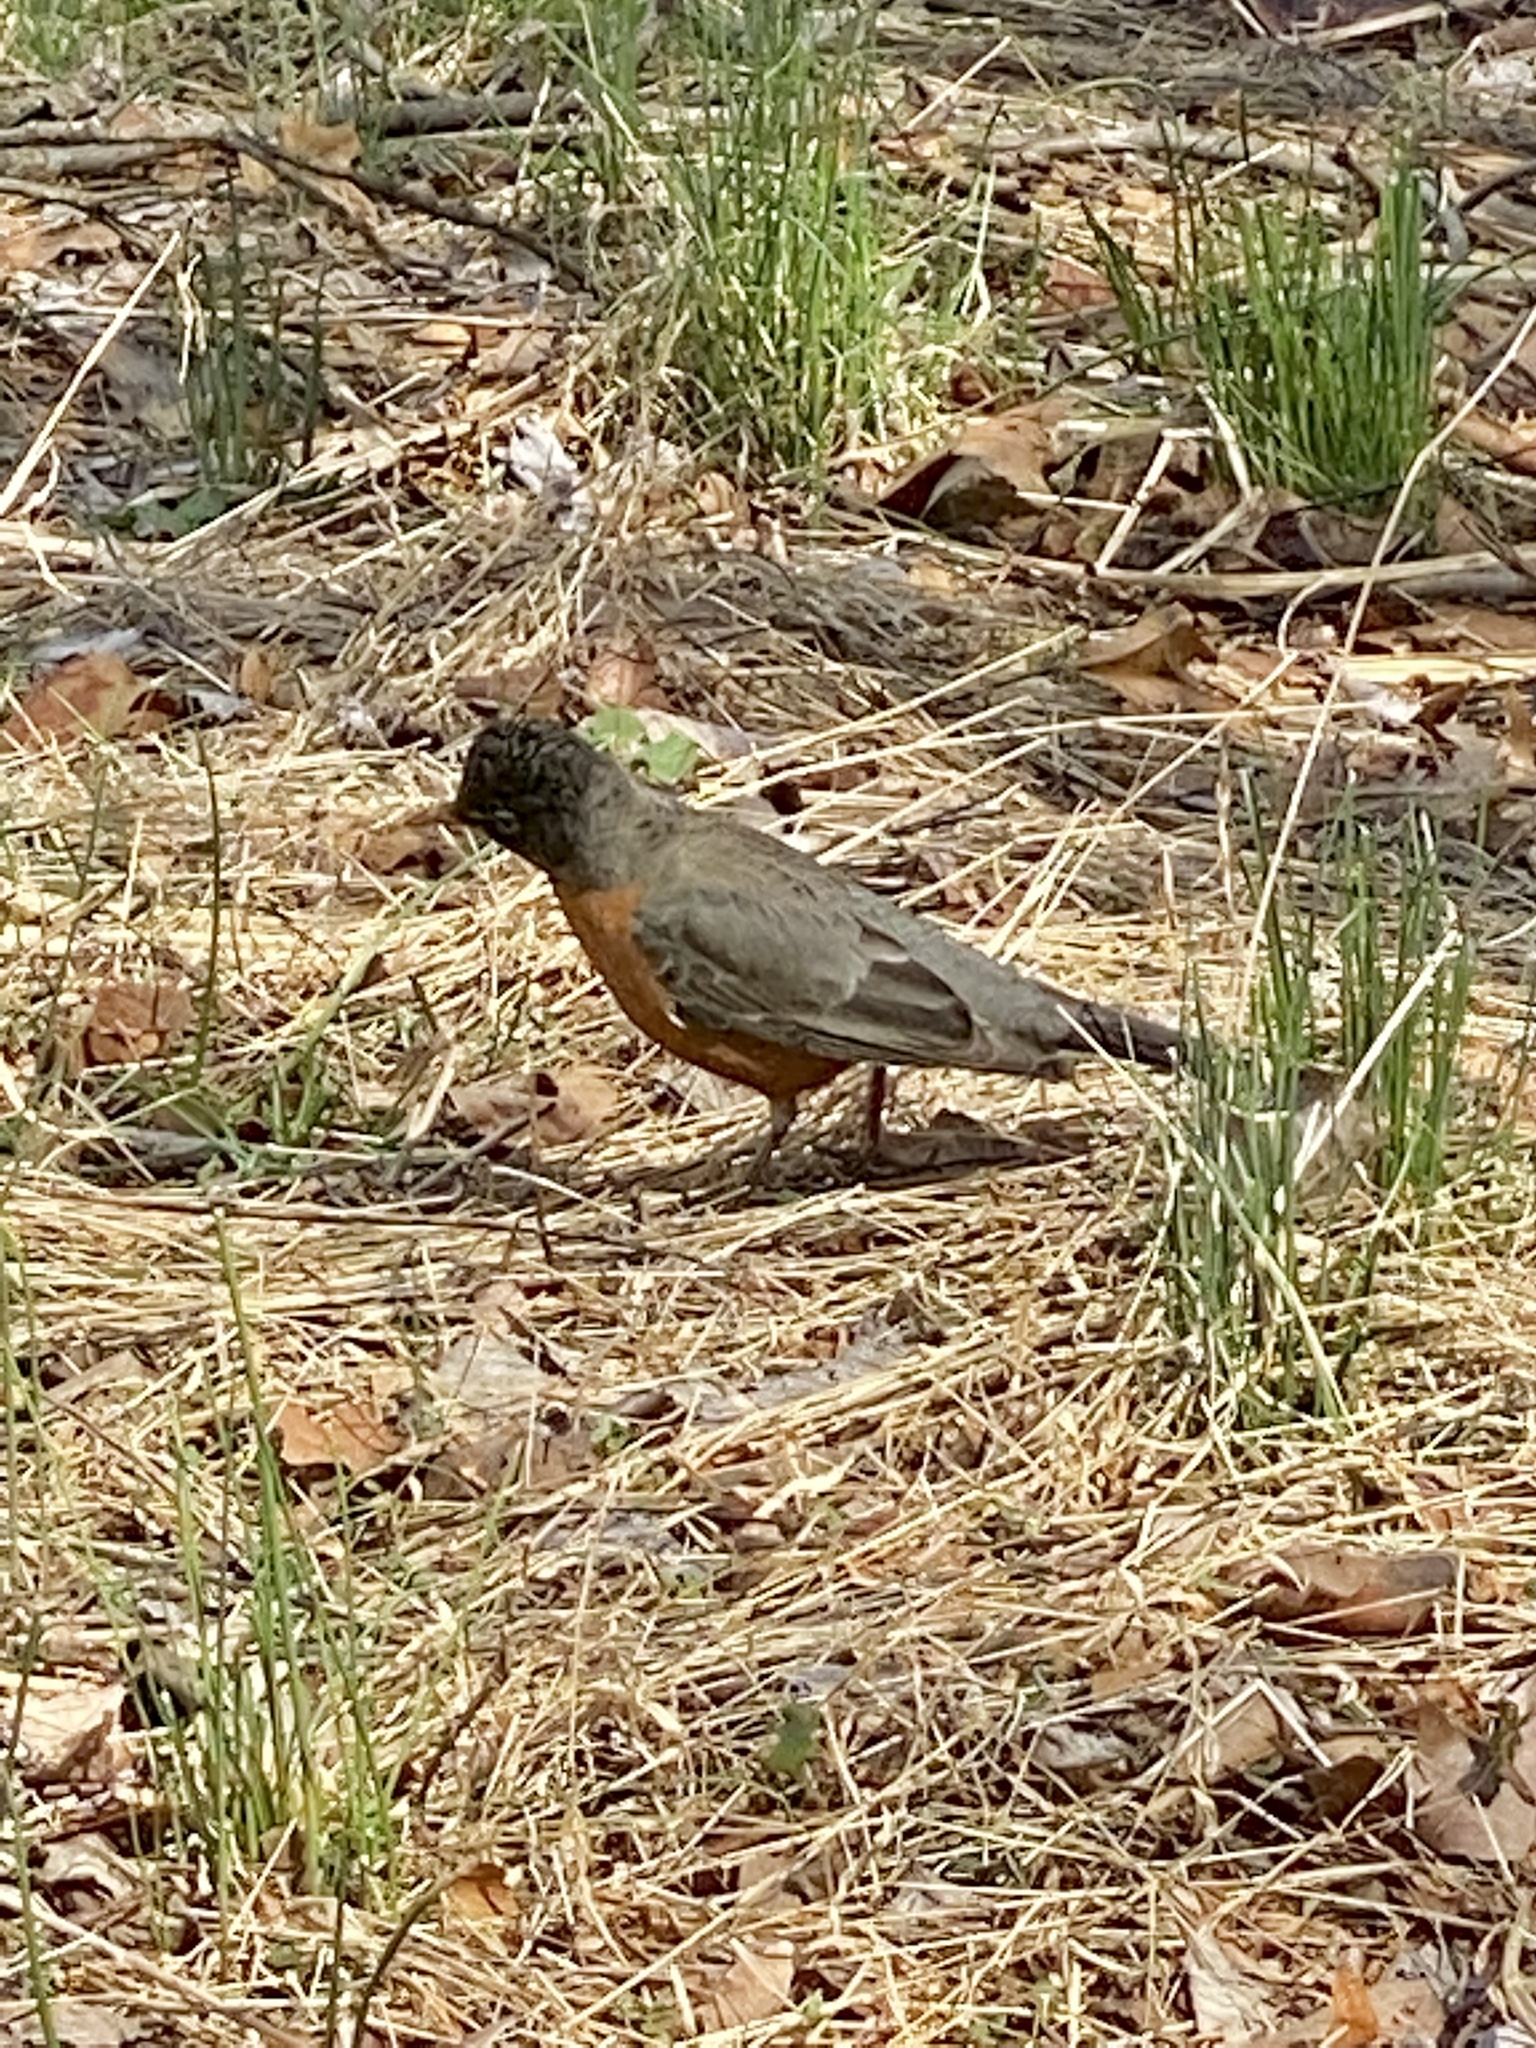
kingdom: Animalia
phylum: Chordata
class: Aves
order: Passeriformes
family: Turdidae
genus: Turdus
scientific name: Turdus migratorius
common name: American robin
